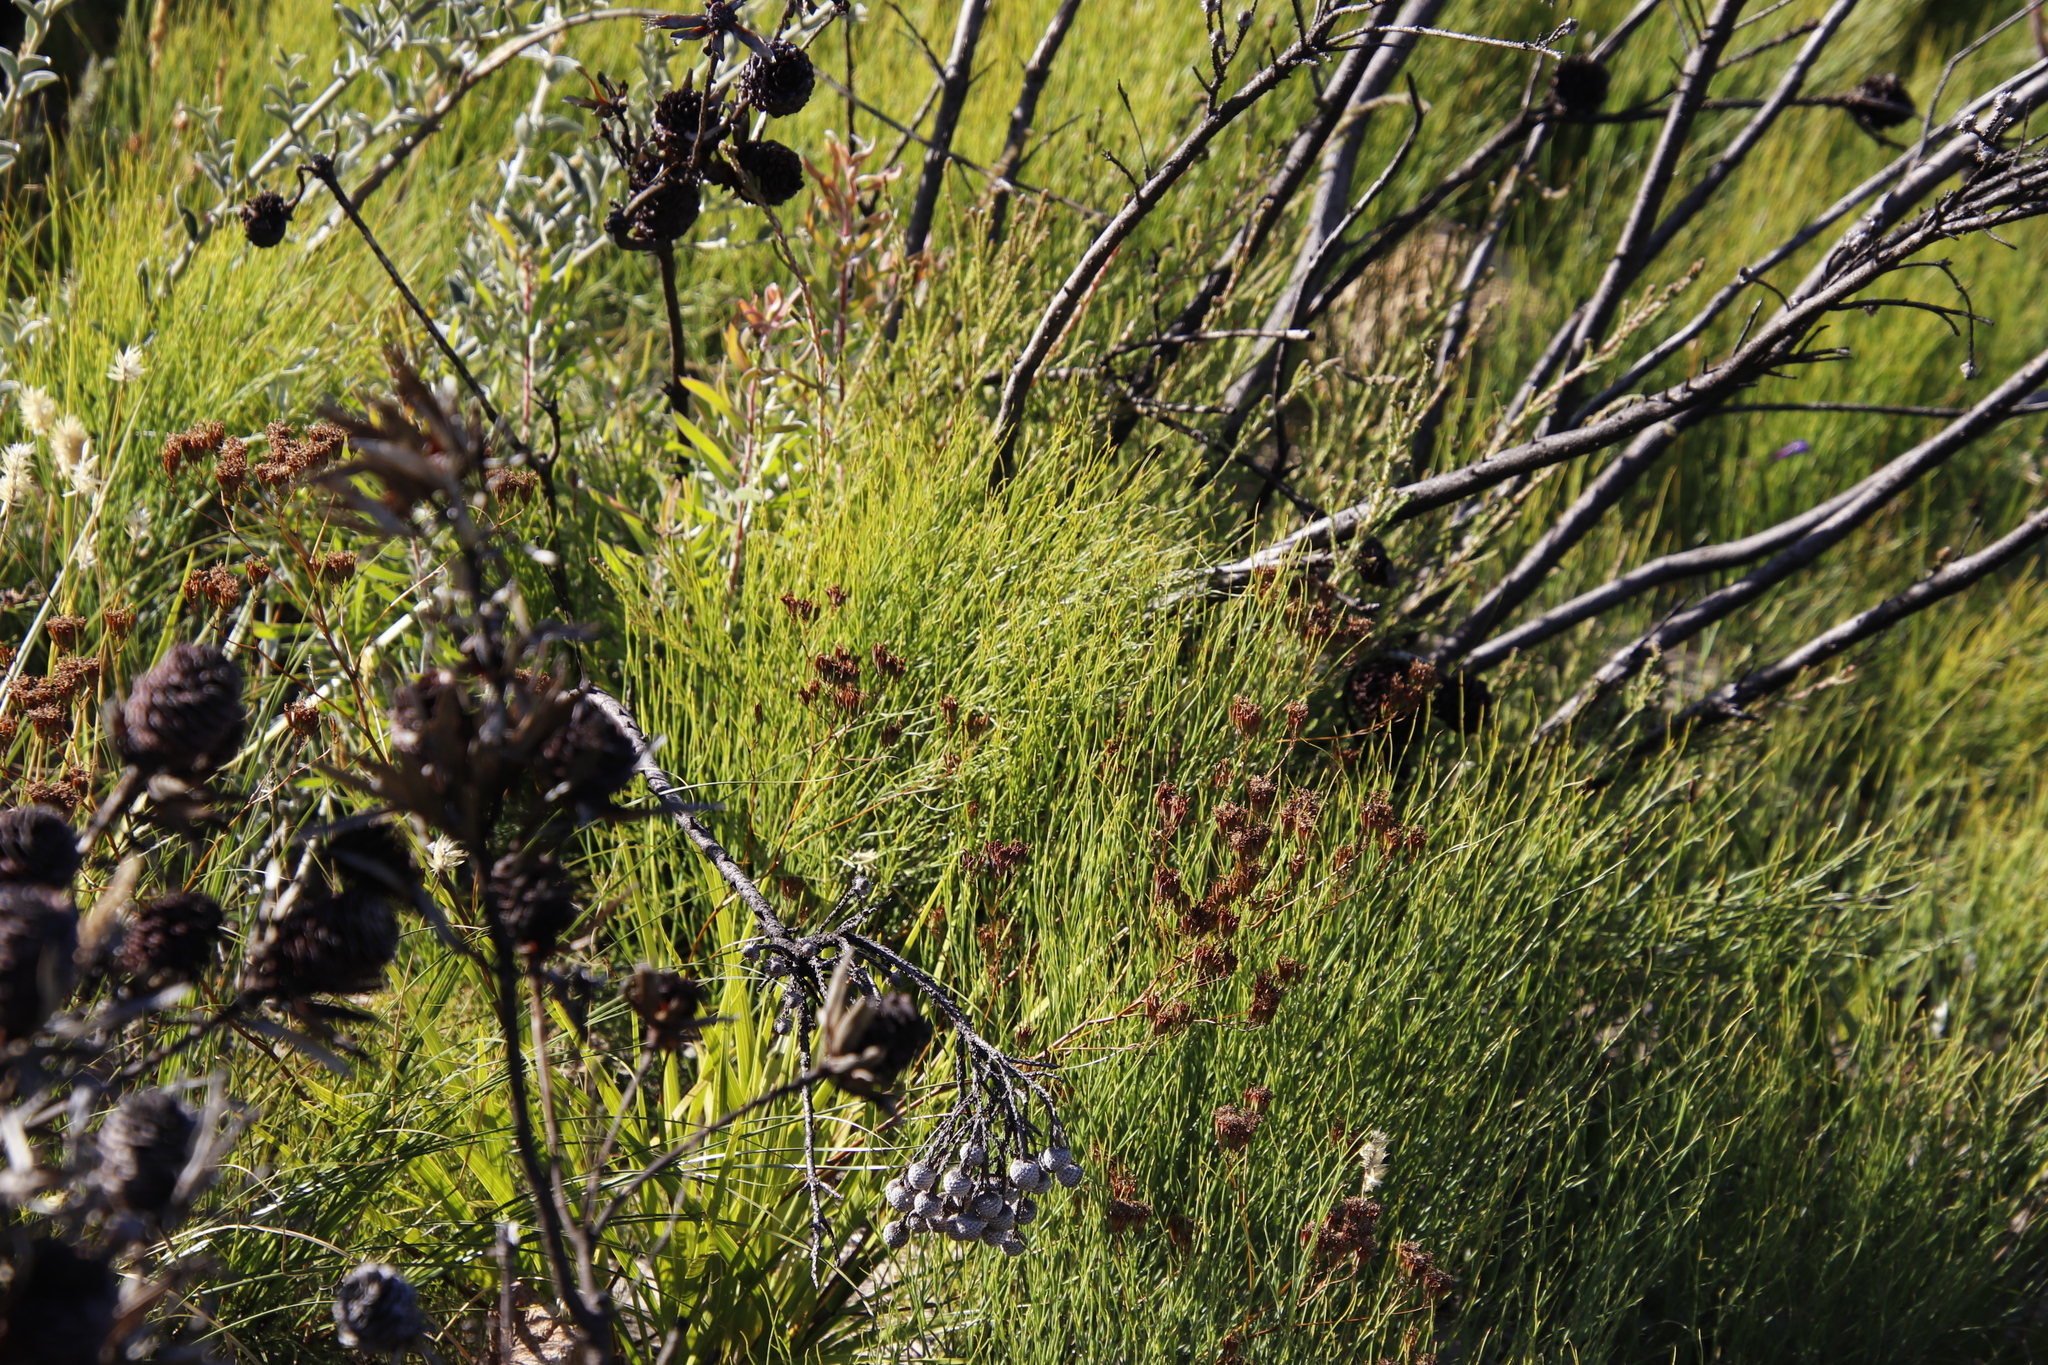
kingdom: Plantae
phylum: Tracheophyta
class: Magnoliopsida
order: Proteales
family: Proteaceae
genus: Leucadendron
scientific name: Leucadendron spissifolium
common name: Spear-leaf conebush
